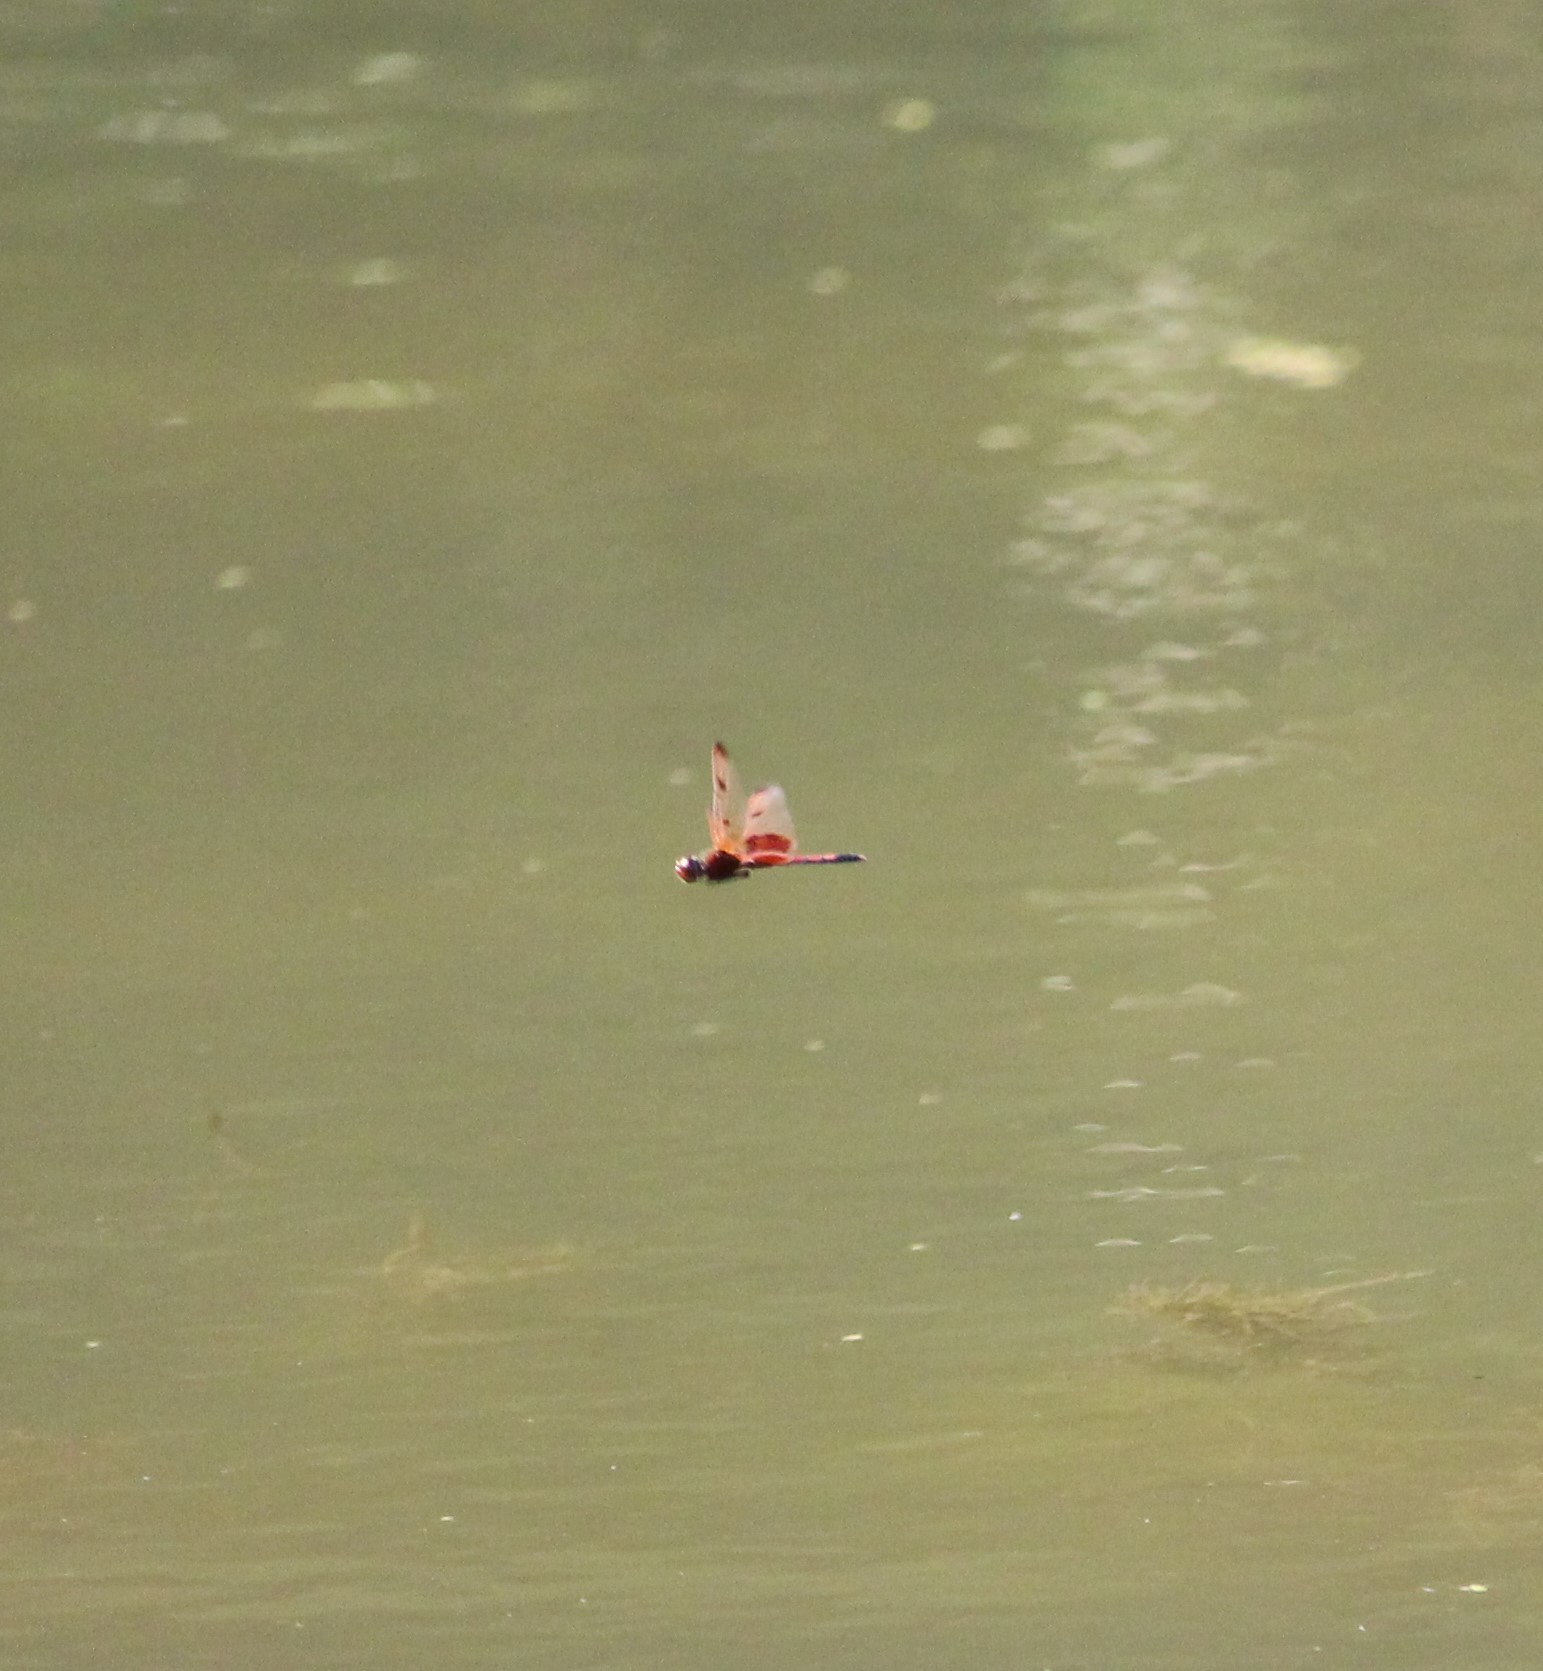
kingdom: Animalia
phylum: Arthropoda
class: Insecta
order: Odonata
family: Libellulidae
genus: Celithemis
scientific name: Celithemis elisa
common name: Calico pennant
